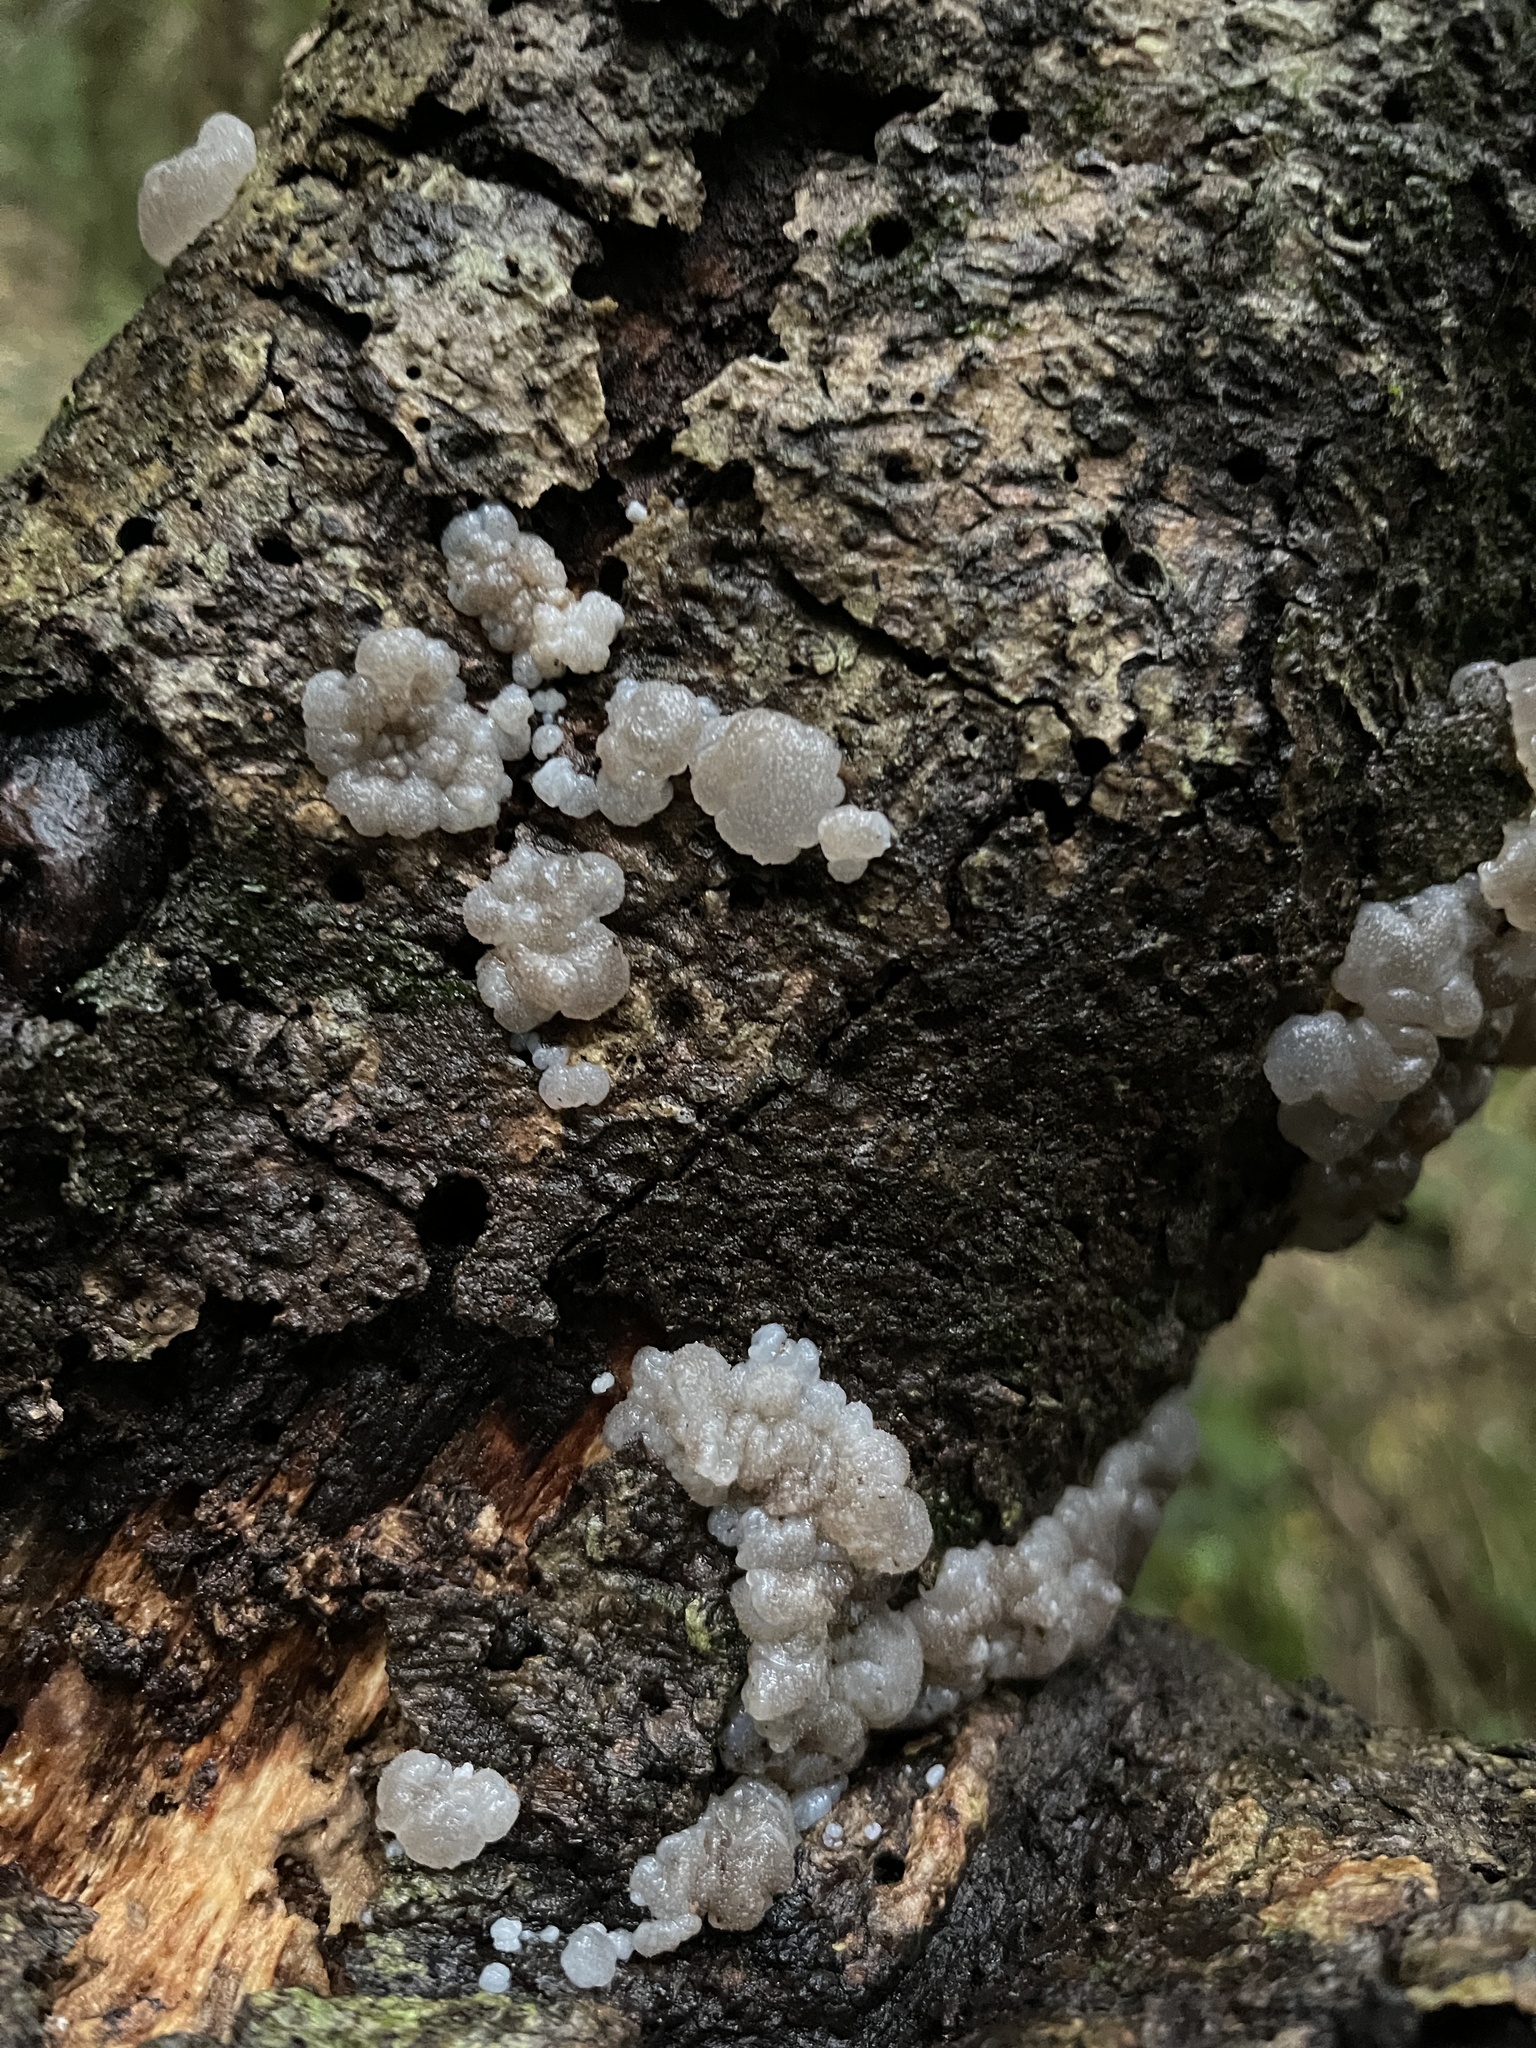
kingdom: Fungi
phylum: Basidiomycota
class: Agaricomycetes
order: Auriculariales
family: Auriculariaceae
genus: Tremellochaete
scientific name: Tremellochaete
